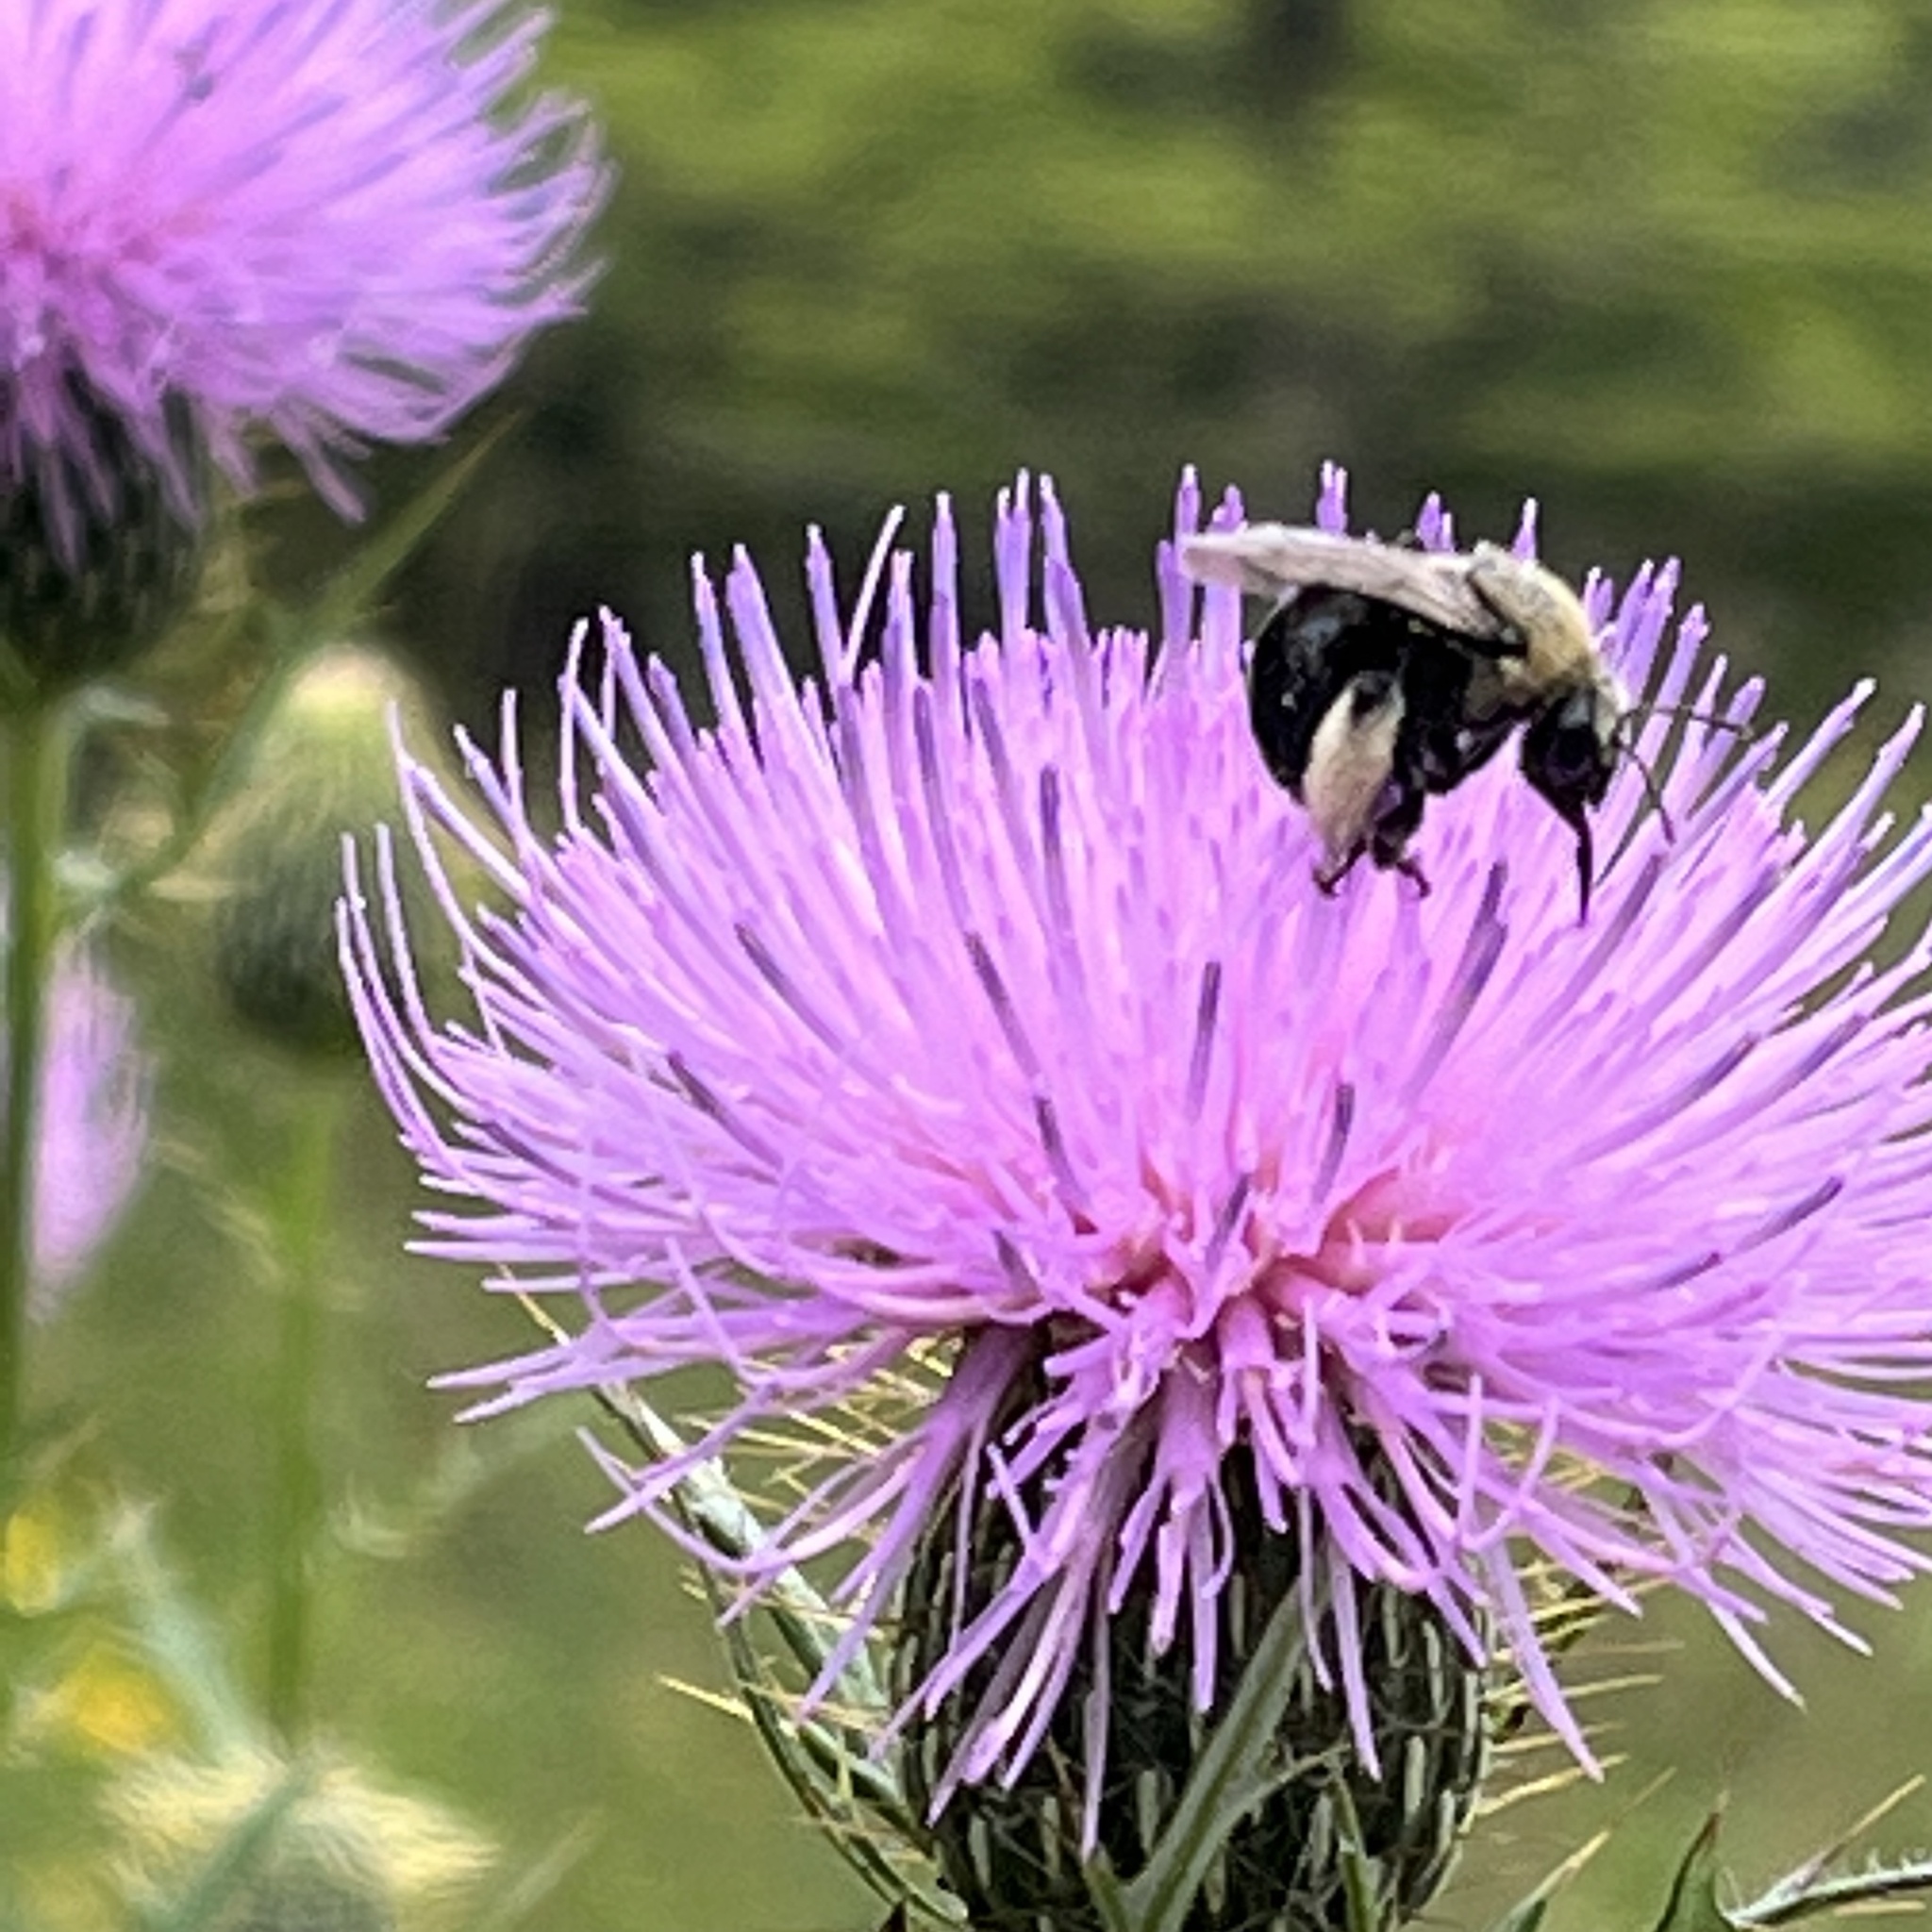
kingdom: Animalia
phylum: Arthropoda
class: Insecta
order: Hymenoptera
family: Apidae
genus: Melissodes
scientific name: Melissodes desponsus
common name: Thistle long-horned bee
